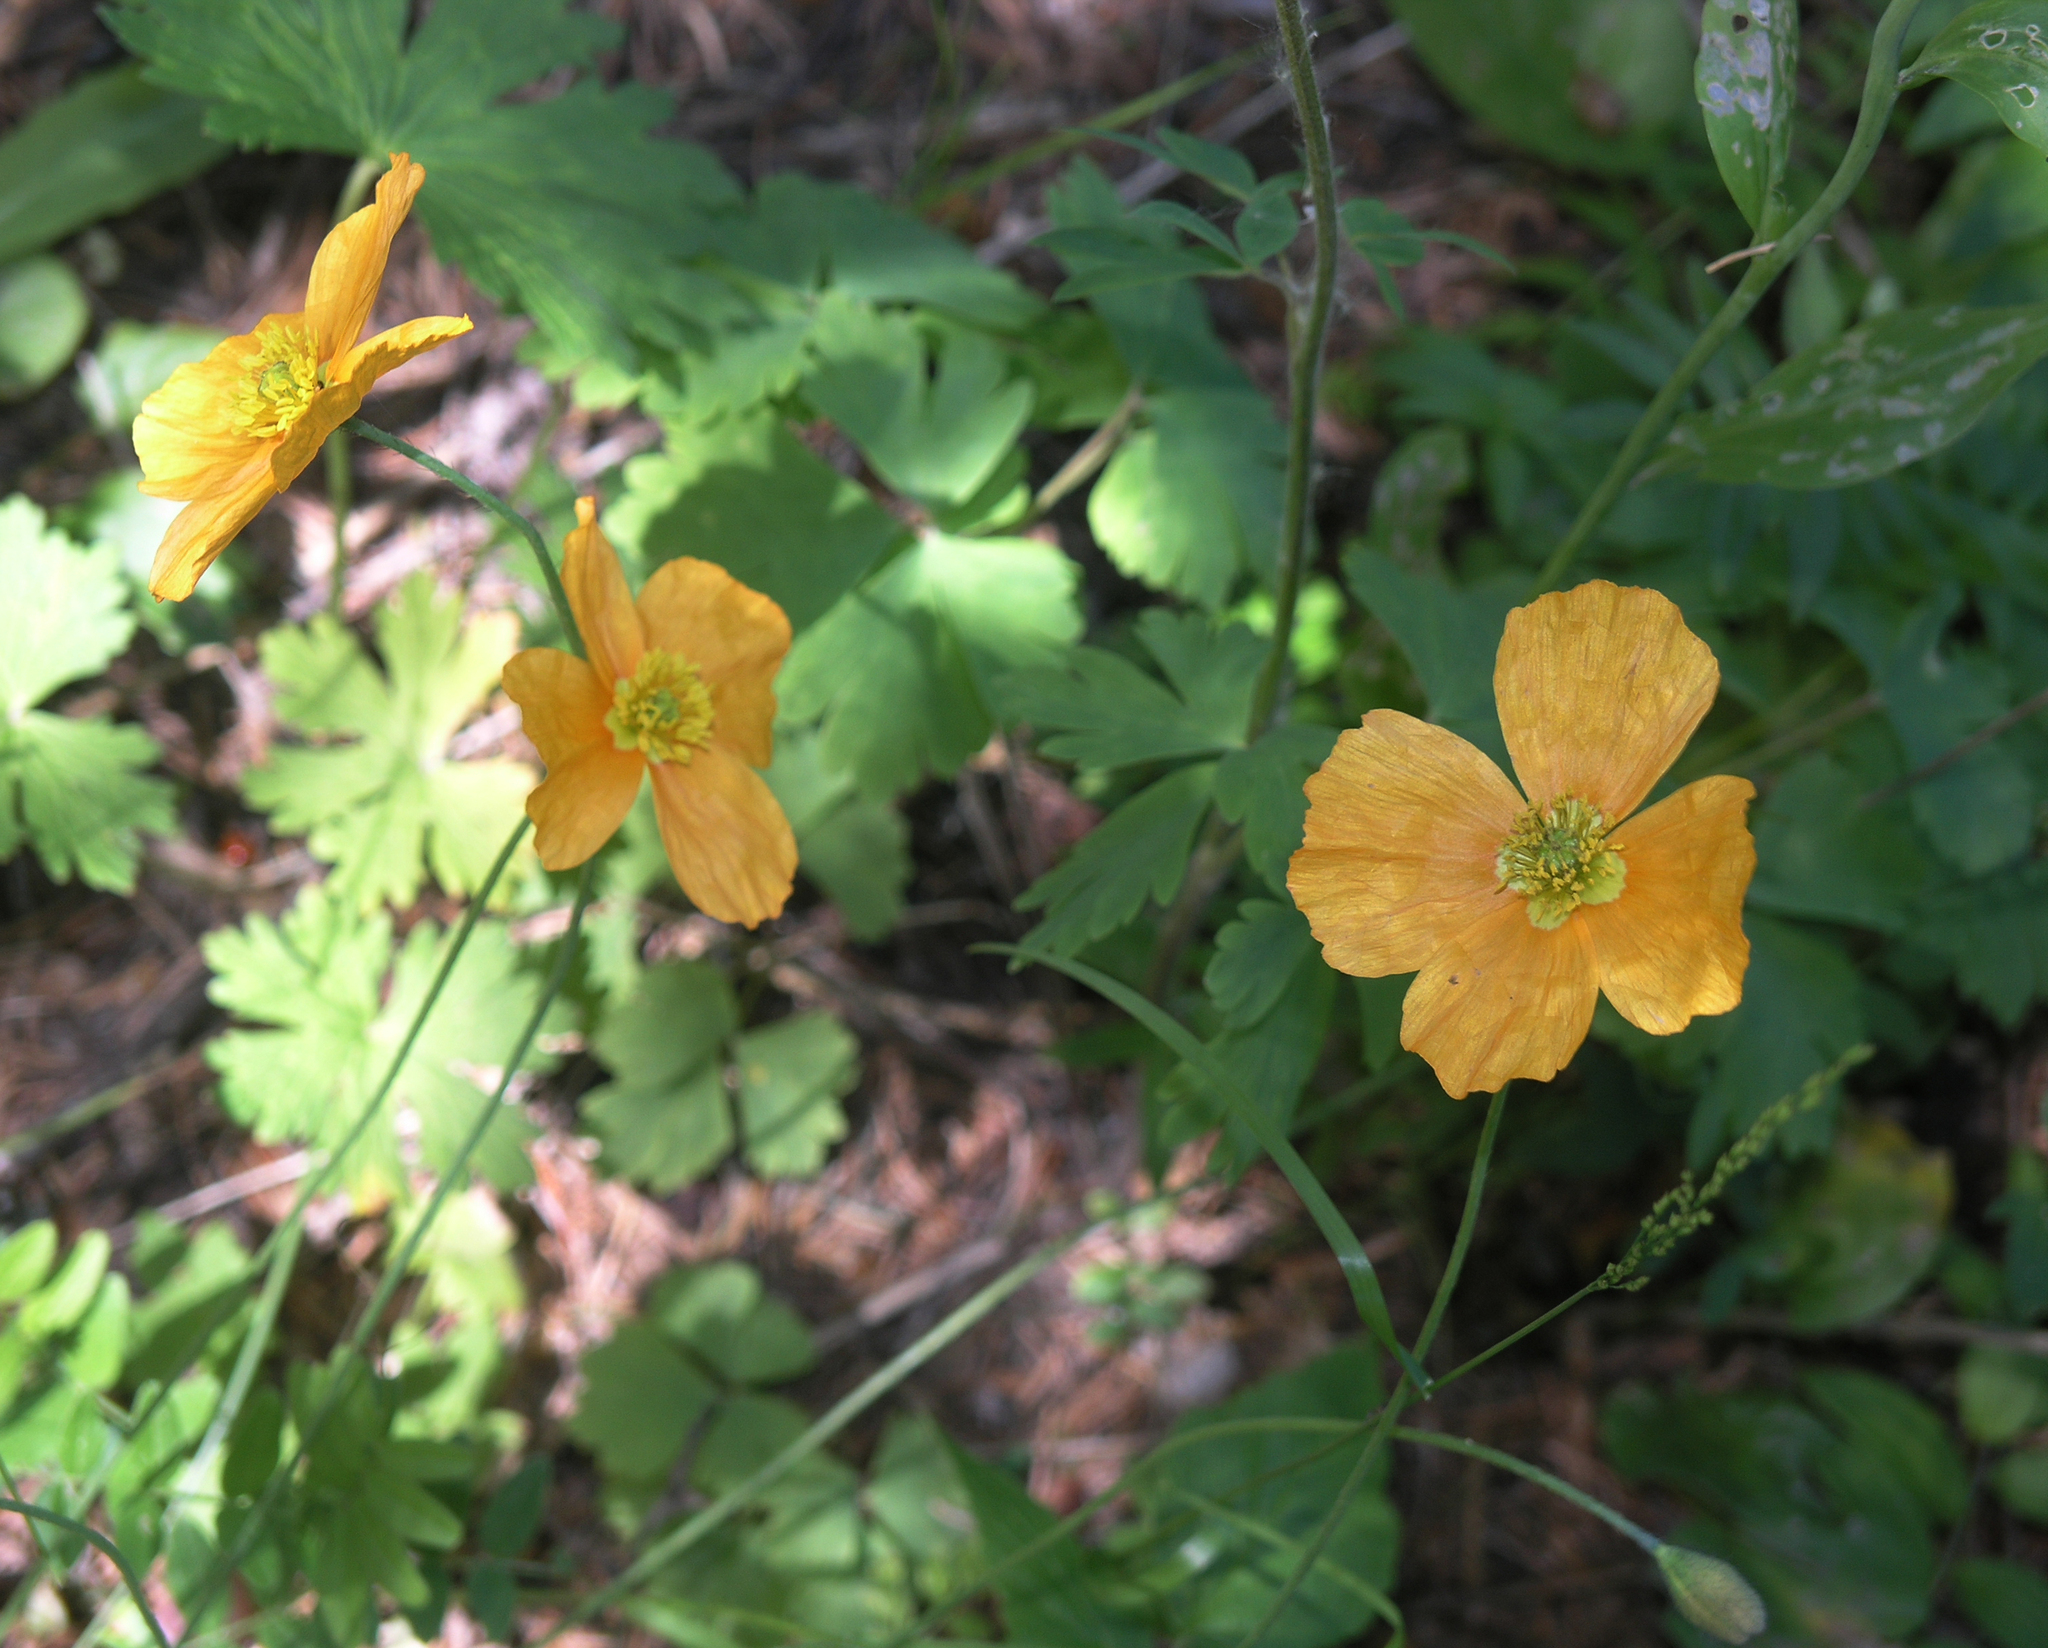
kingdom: Plantae
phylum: Tracheophyta
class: Magnoliopsida
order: Ranunculales
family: Papaveraceae
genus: Oreomecon
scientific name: Oreomecon
